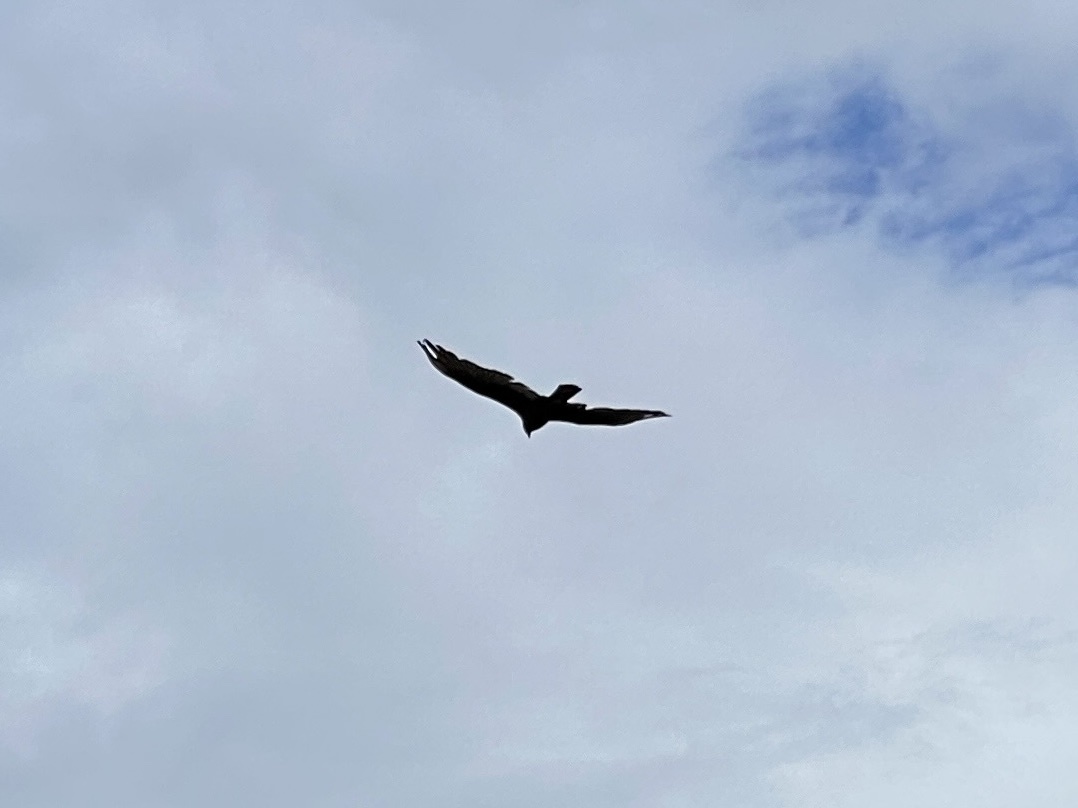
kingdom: Animalia
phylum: Chordata
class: Aves
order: Accipitriformes
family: Cathartidae
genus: Cathartes
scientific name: Cathartes aura
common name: Turkey vulture
